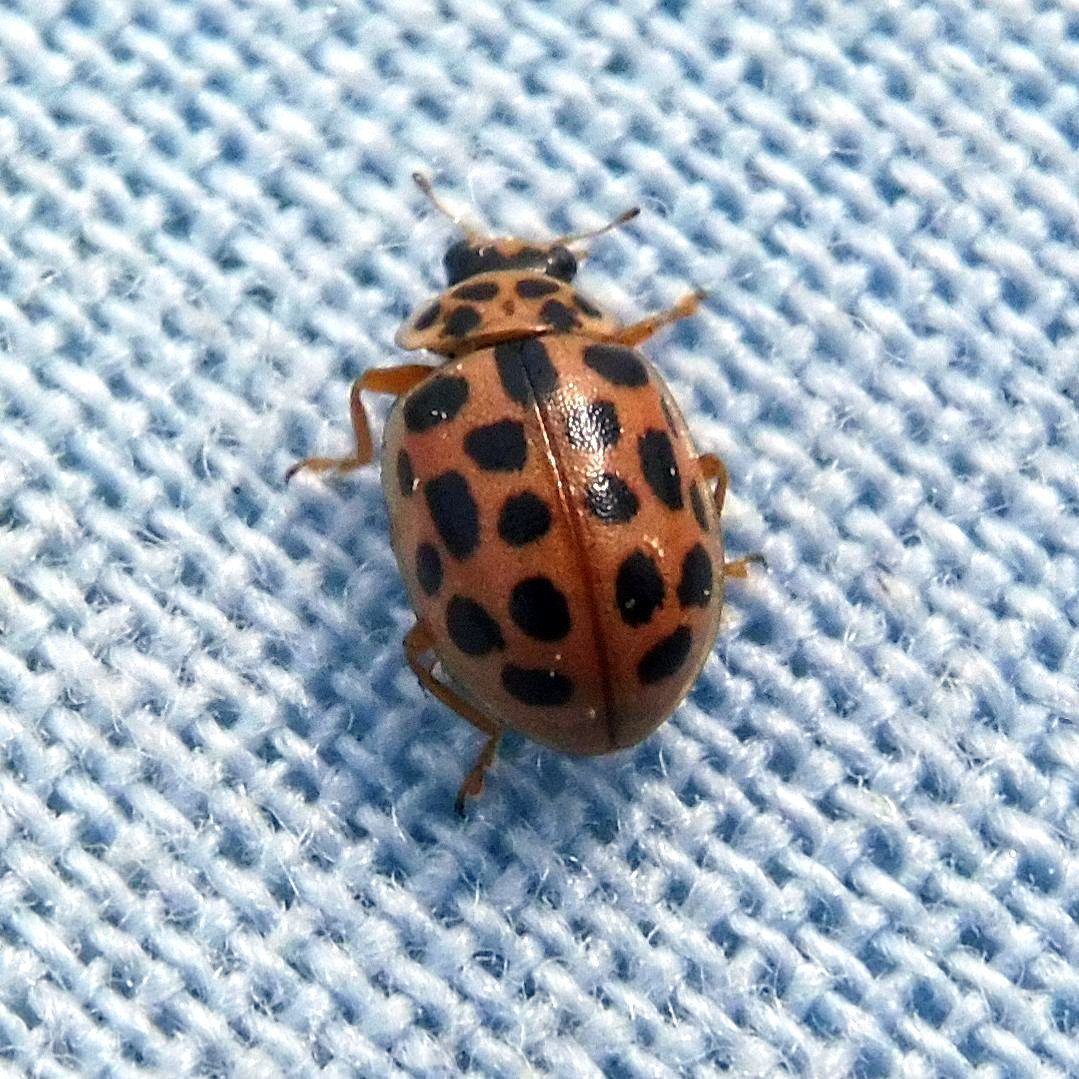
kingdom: Animalia
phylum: Arthropoda
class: Insecta
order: Coleoptera
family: Coccinellidae
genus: Anisosticta
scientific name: Anisosticta novemdecimpunctata
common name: Water ladybird
